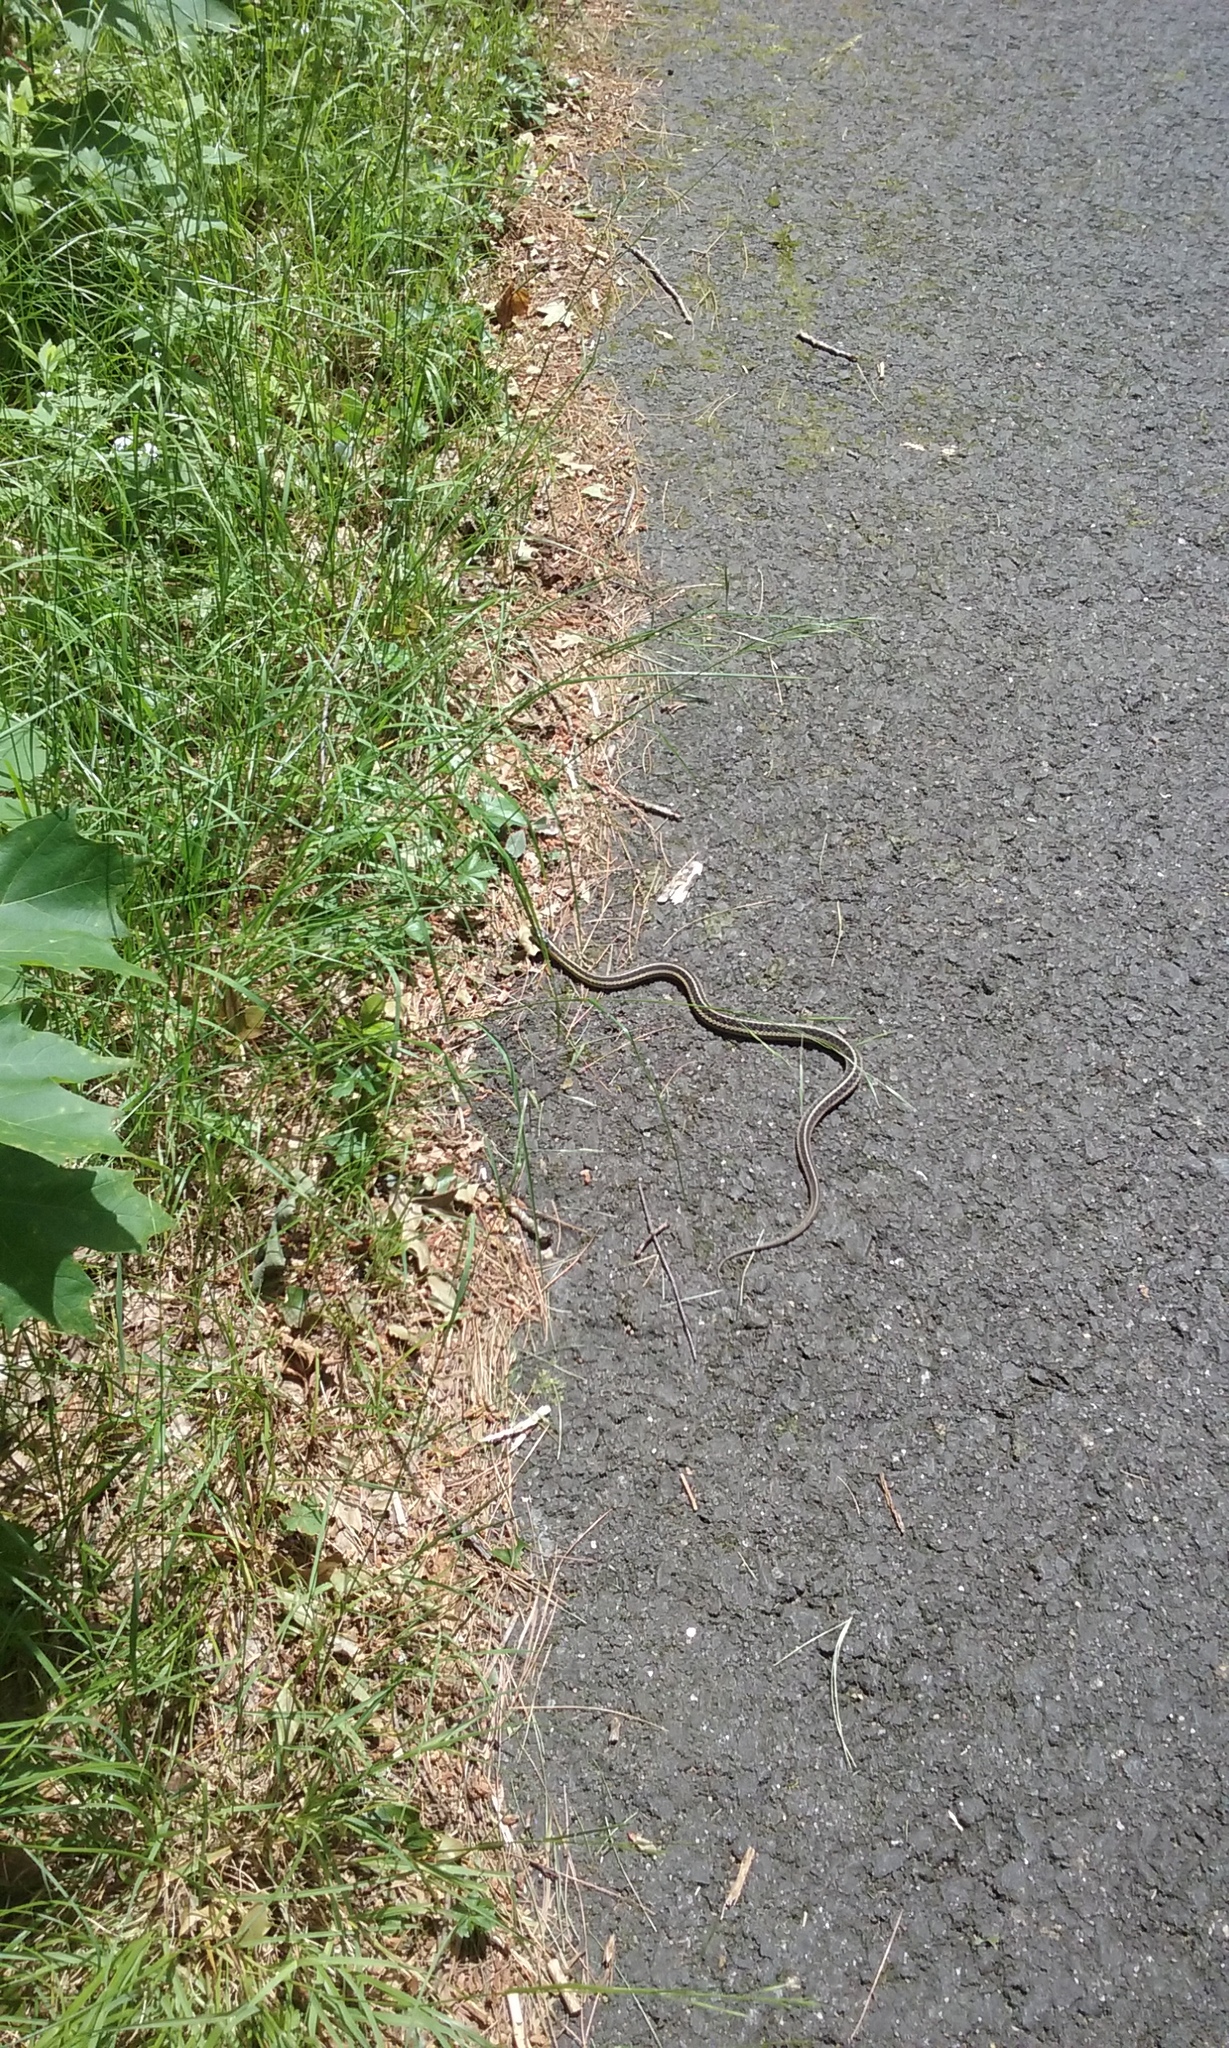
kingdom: Animalia
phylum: Chordata
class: Squamata
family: Colubridae
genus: Thamnophis
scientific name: Thamnophis sirtalis
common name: Common garter snake
